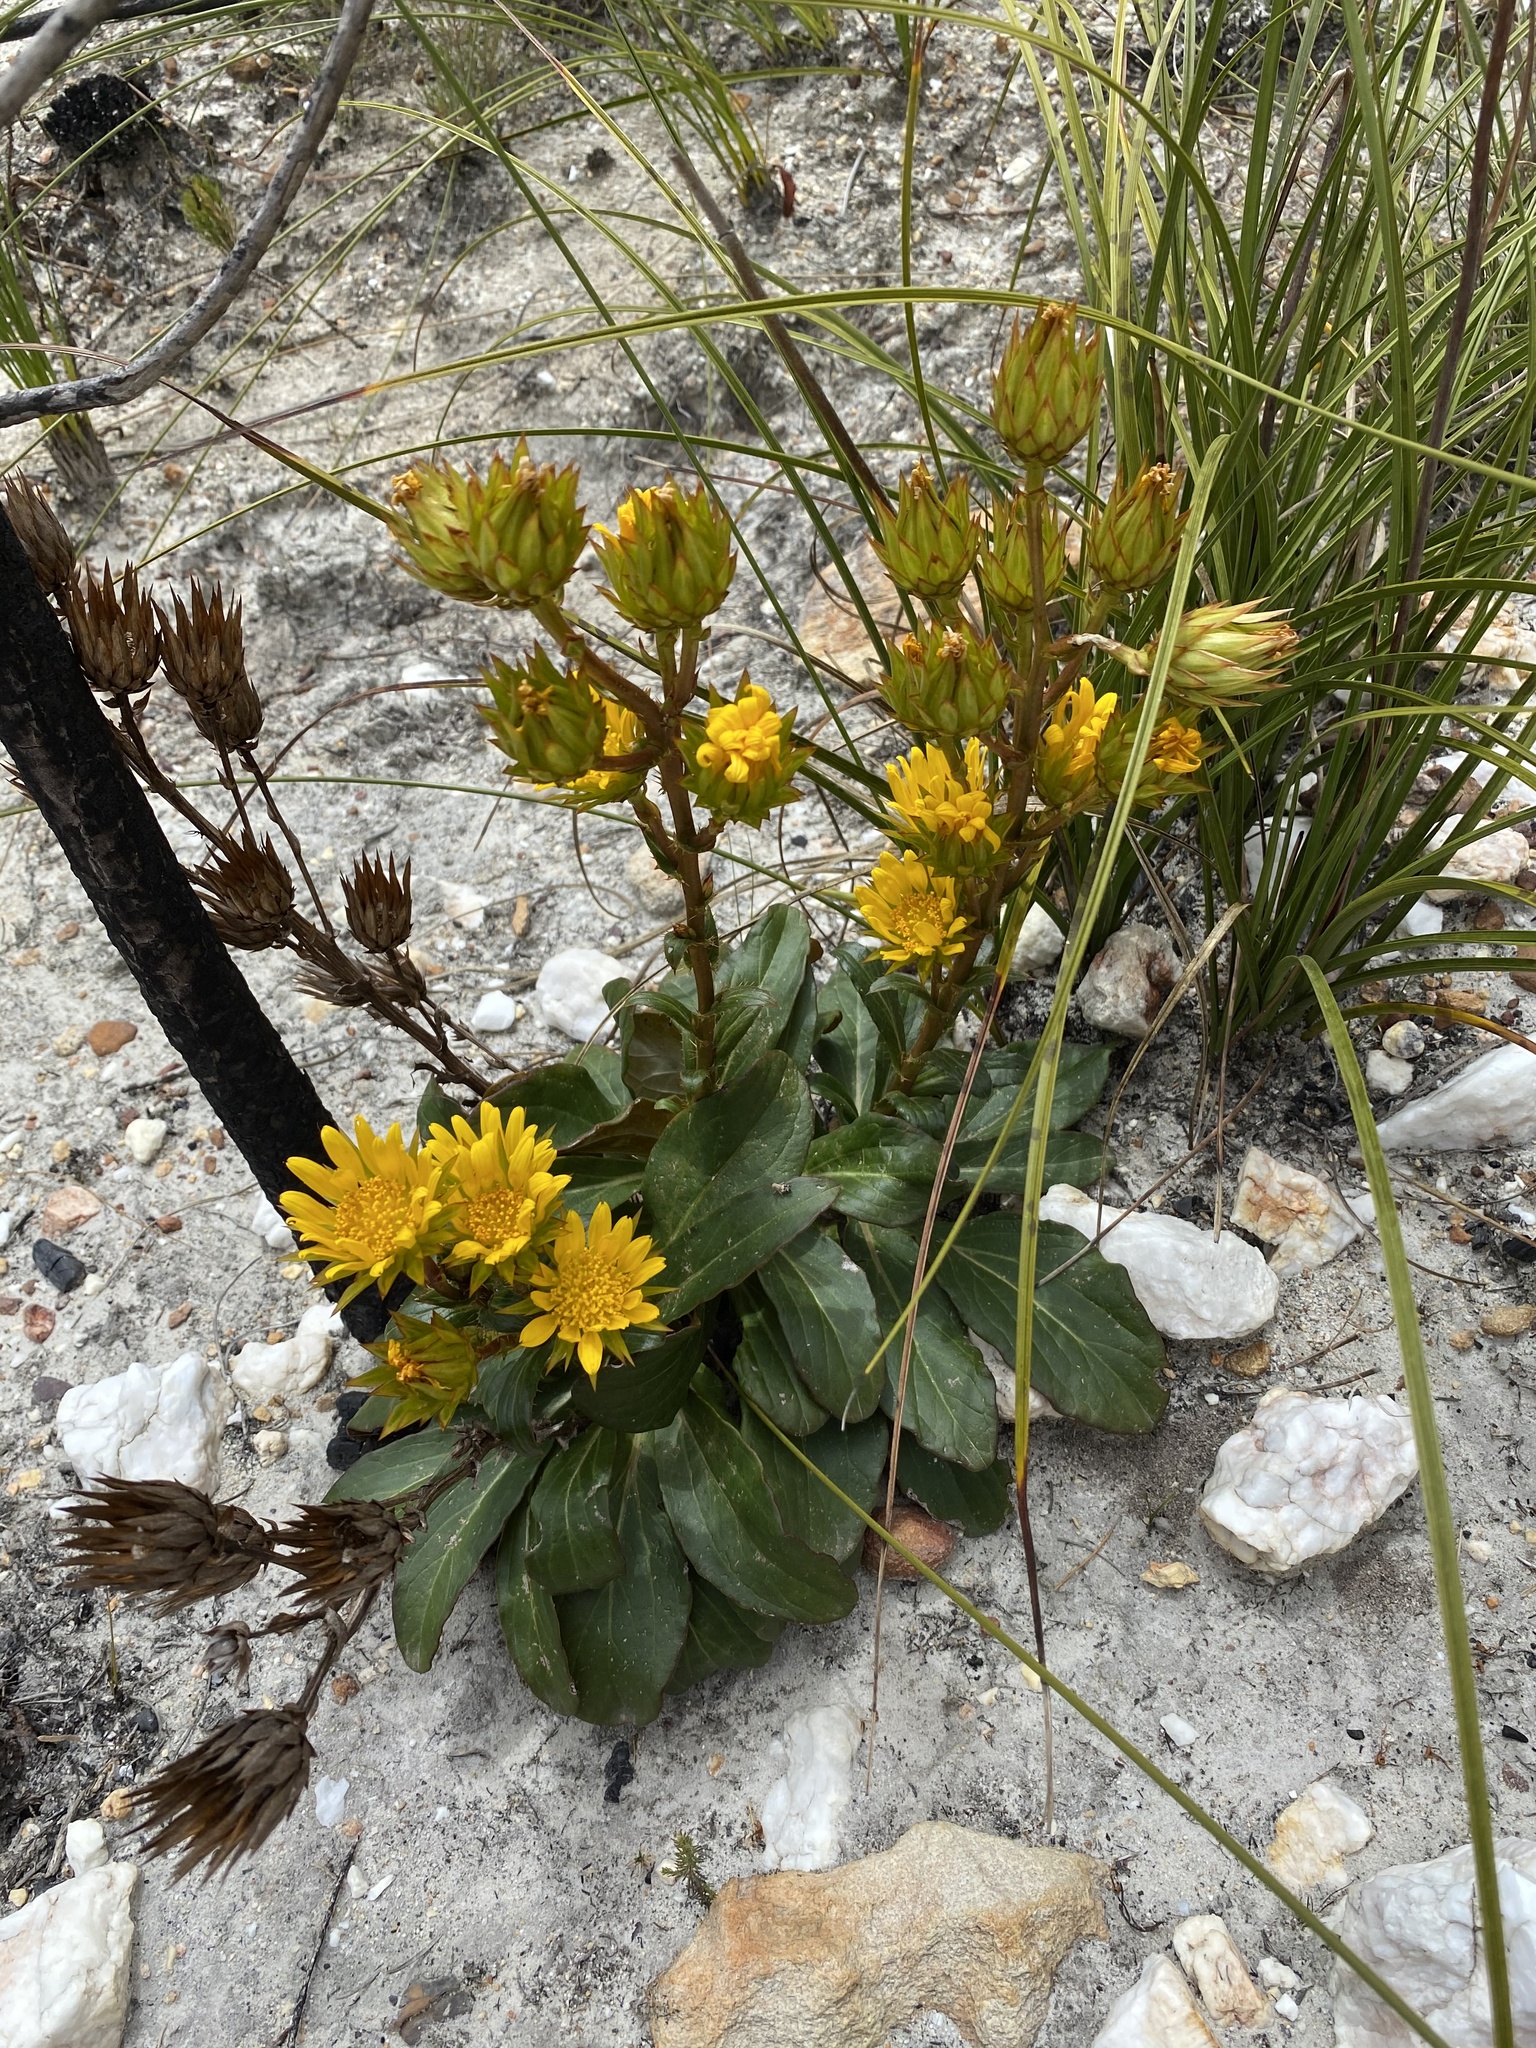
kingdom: Plantae
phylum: Tracheophyta
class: Magnoliopsida
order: Asterales
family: Asteraceae
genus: Berkheya
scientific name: Berkheya herbacea
